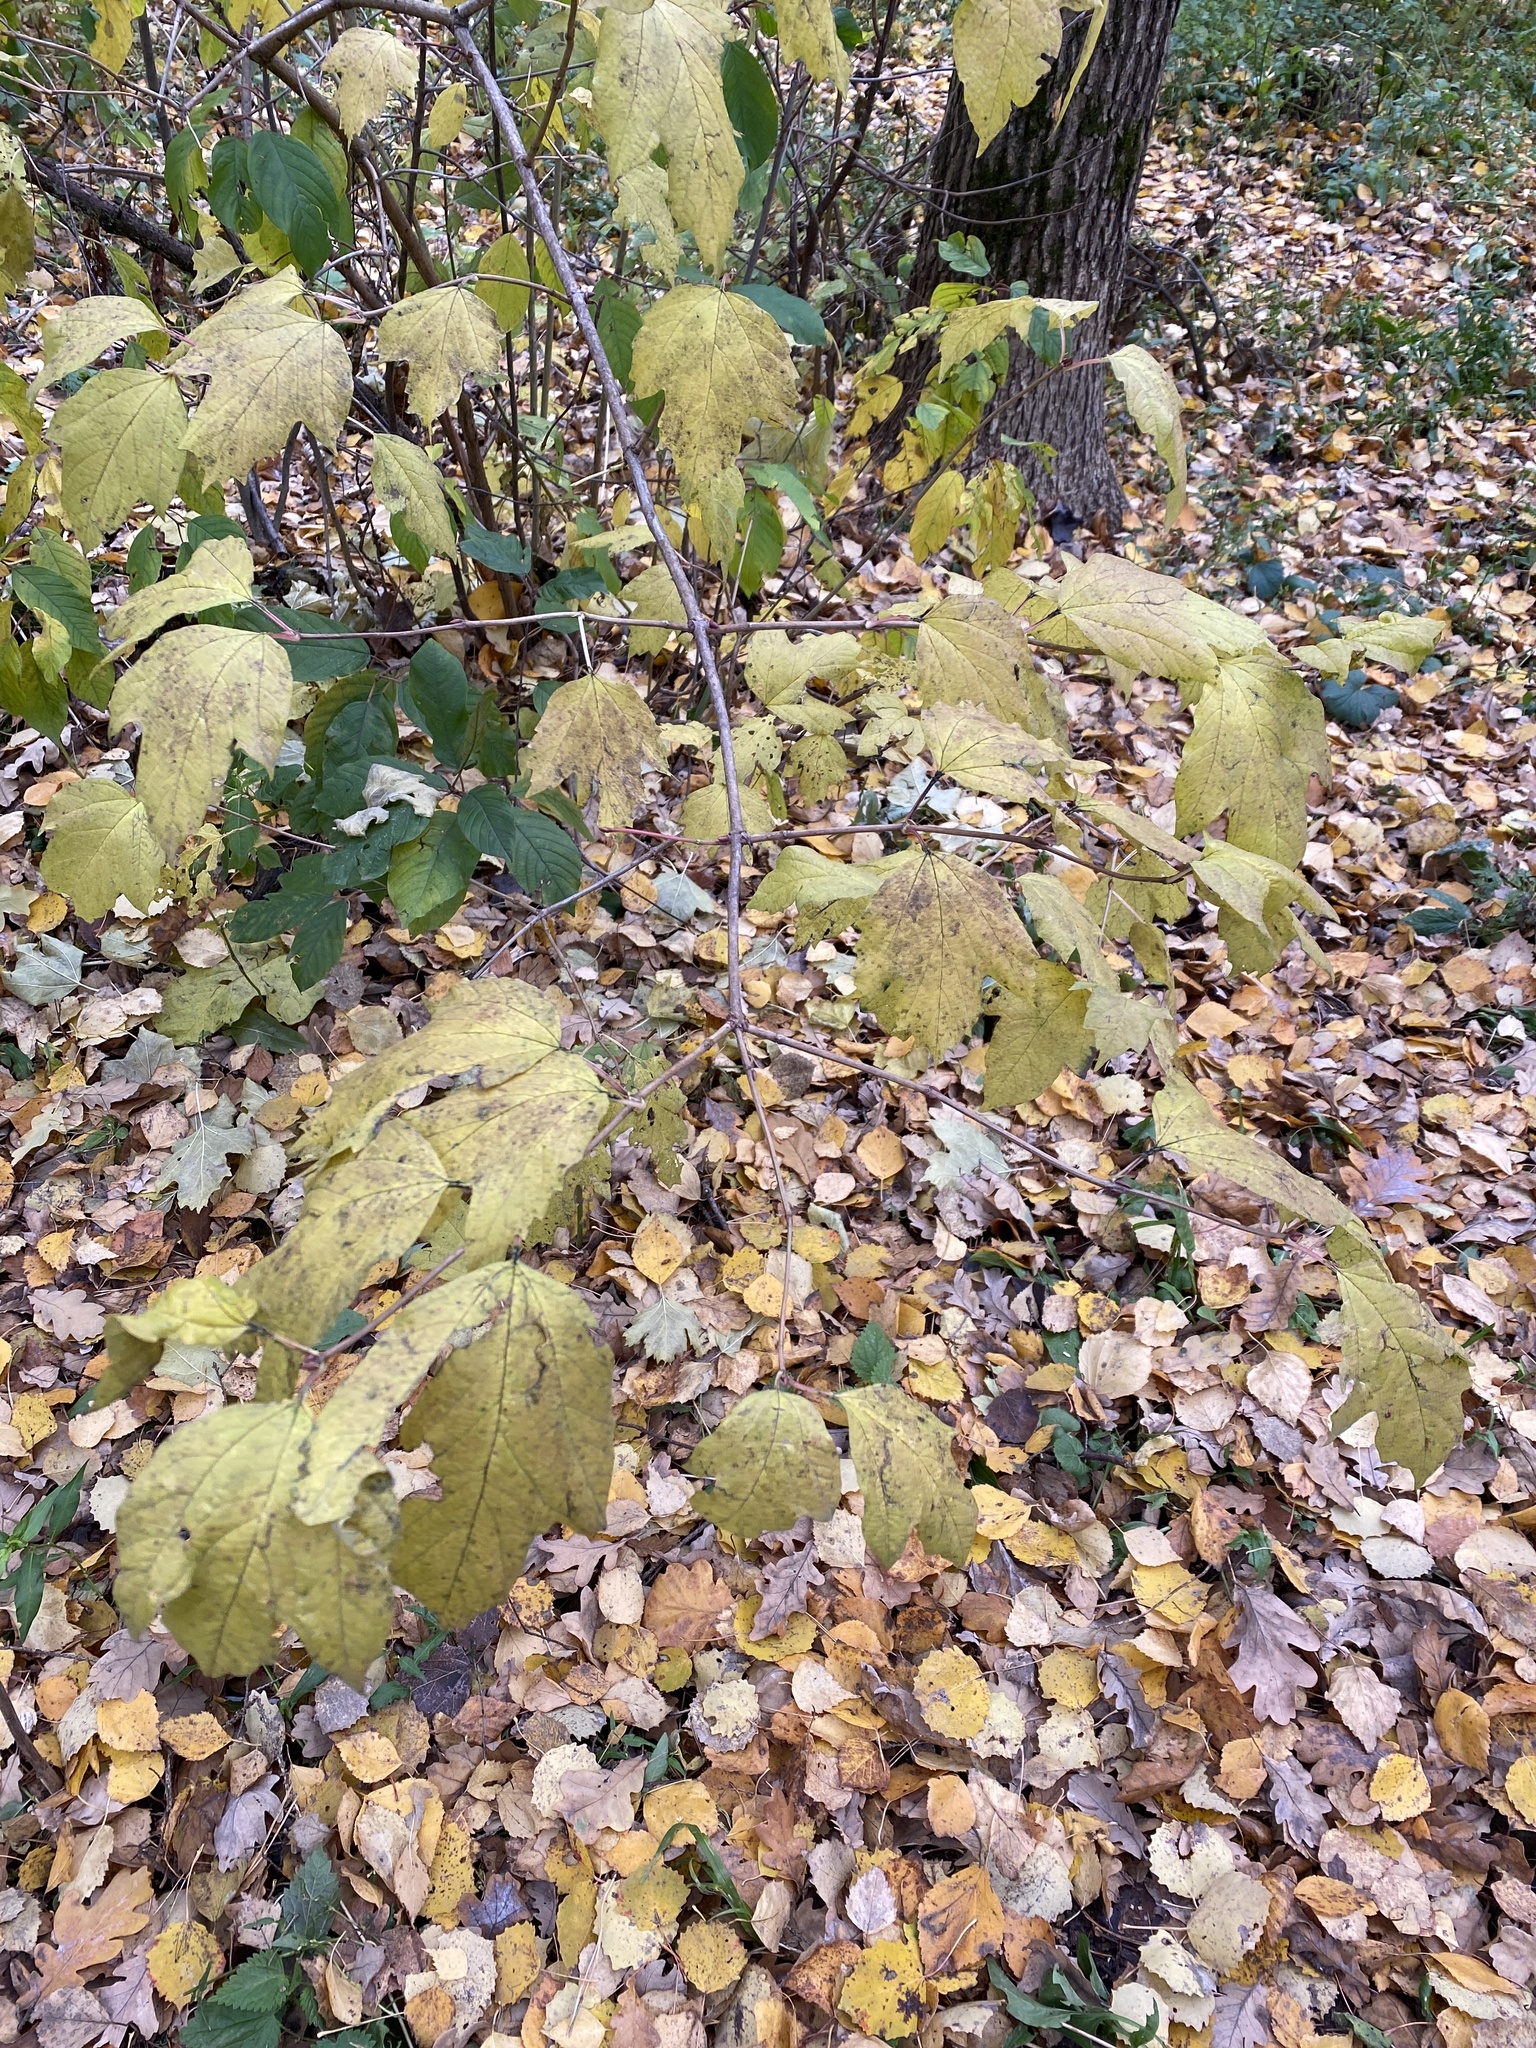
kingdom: Plantae
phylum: Tracheophyta
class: Magnoliopsida
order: Dipsacales
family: Viburnaceae
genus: Viburnum
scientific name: Viburnum opulus
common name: Guelder-rose
